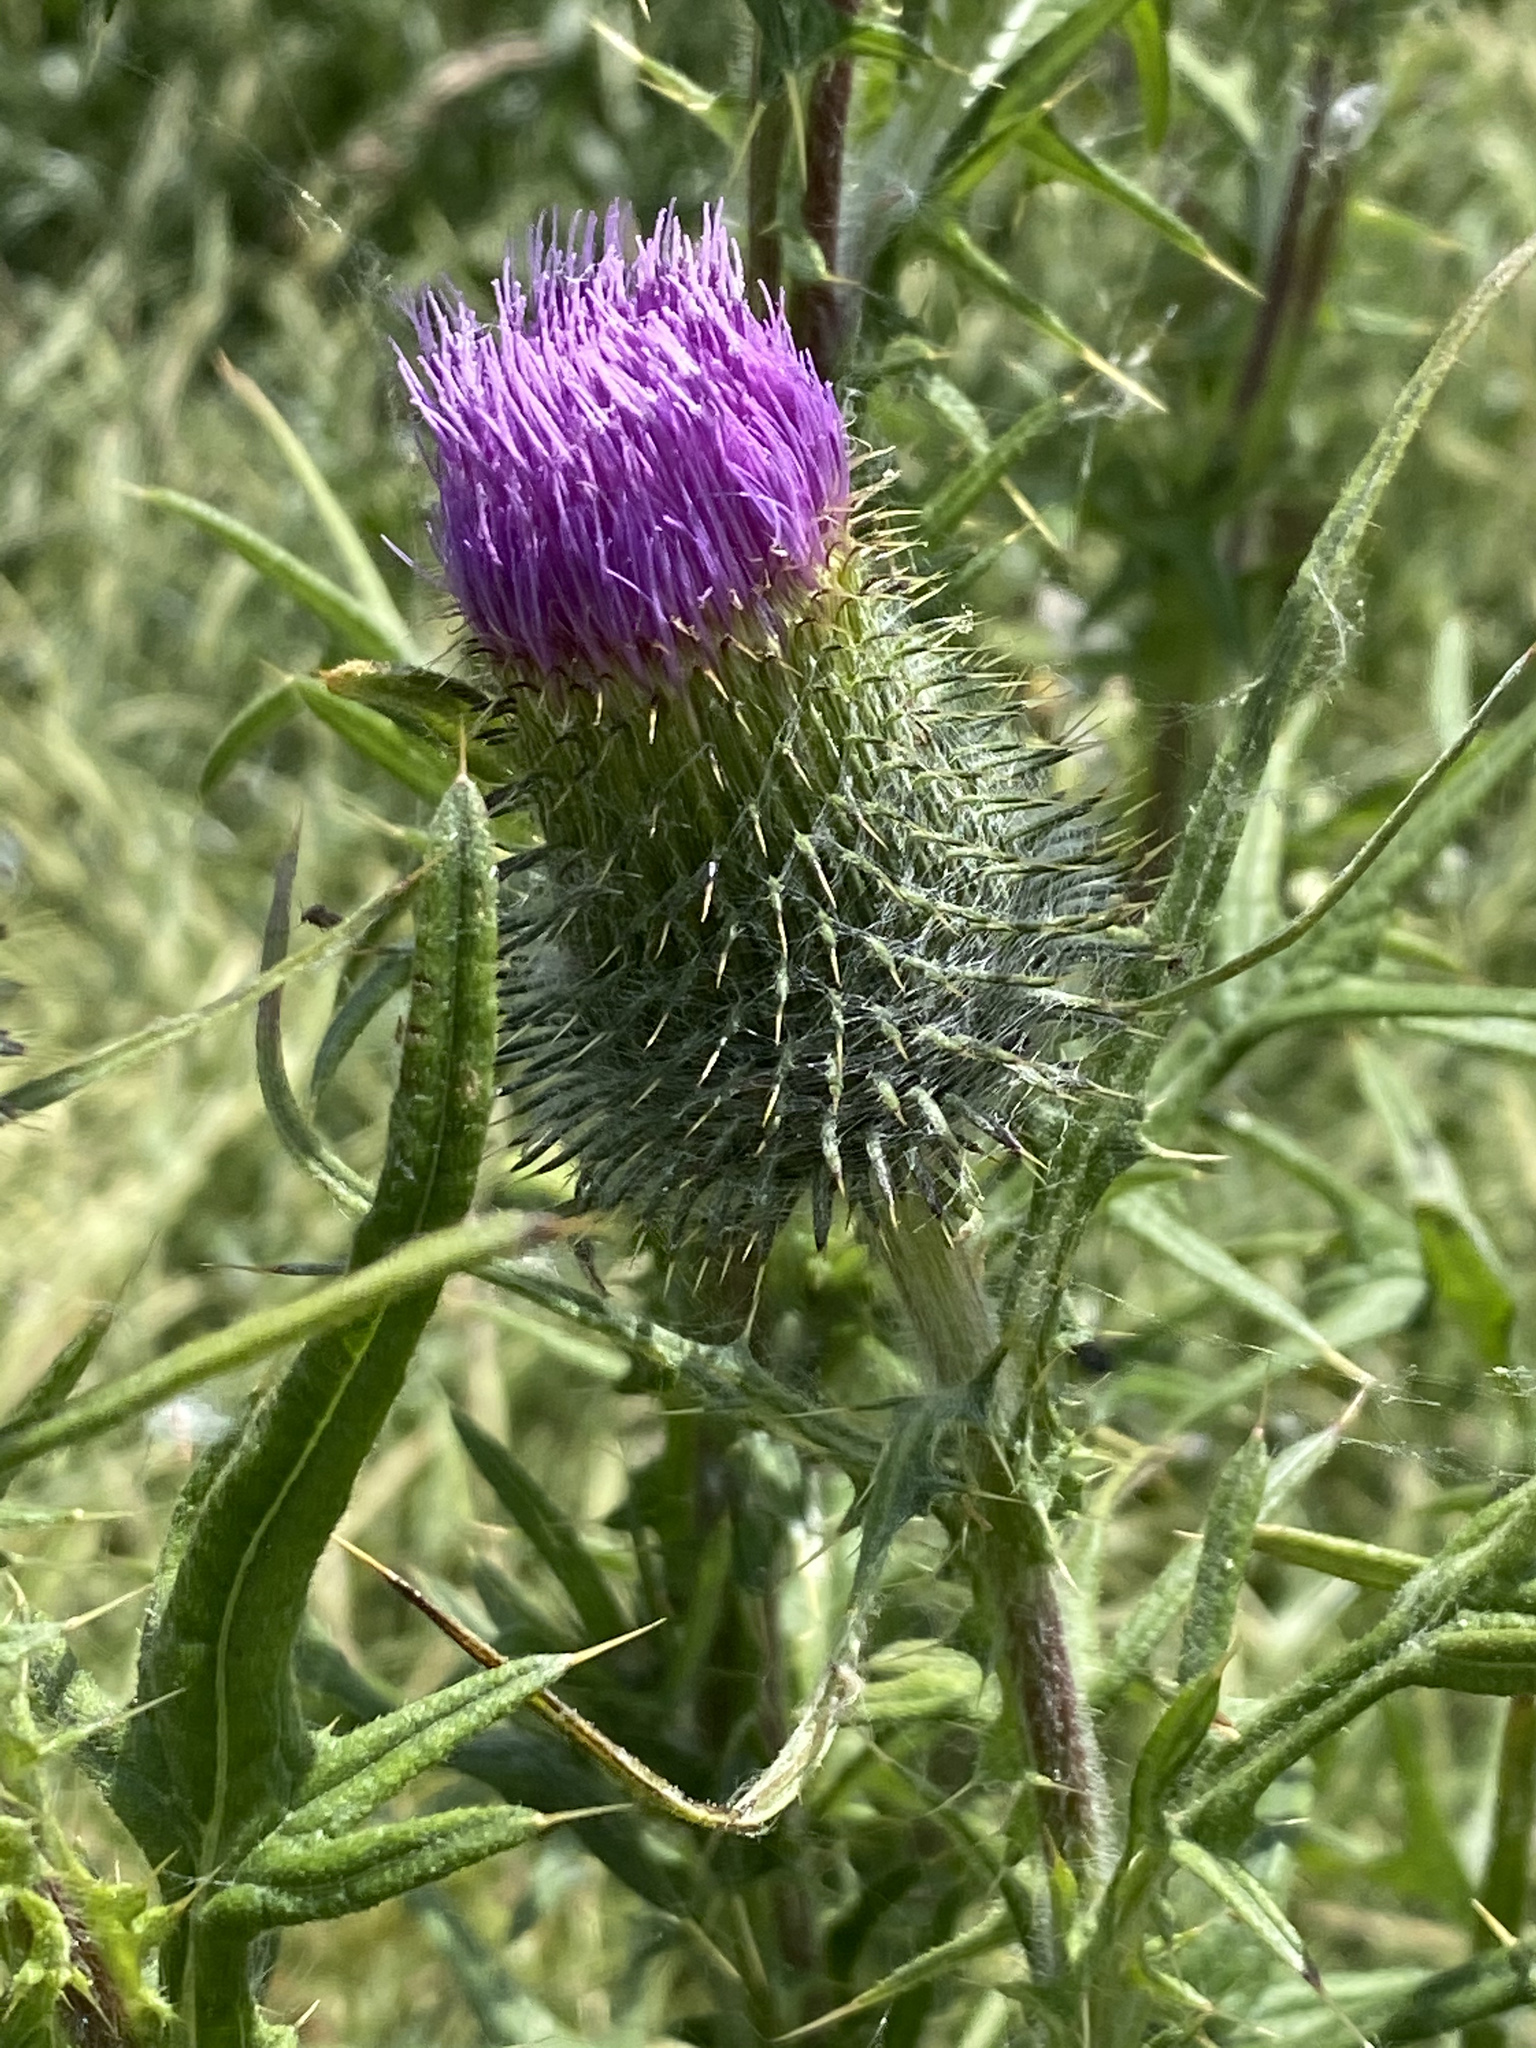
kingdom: Plantae
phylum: Tracheophyta
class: Magnoliopsida
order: Asterales
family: Asteraceae
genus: Cirsium
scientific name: Cirsium vulgare
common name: Bull thistle
